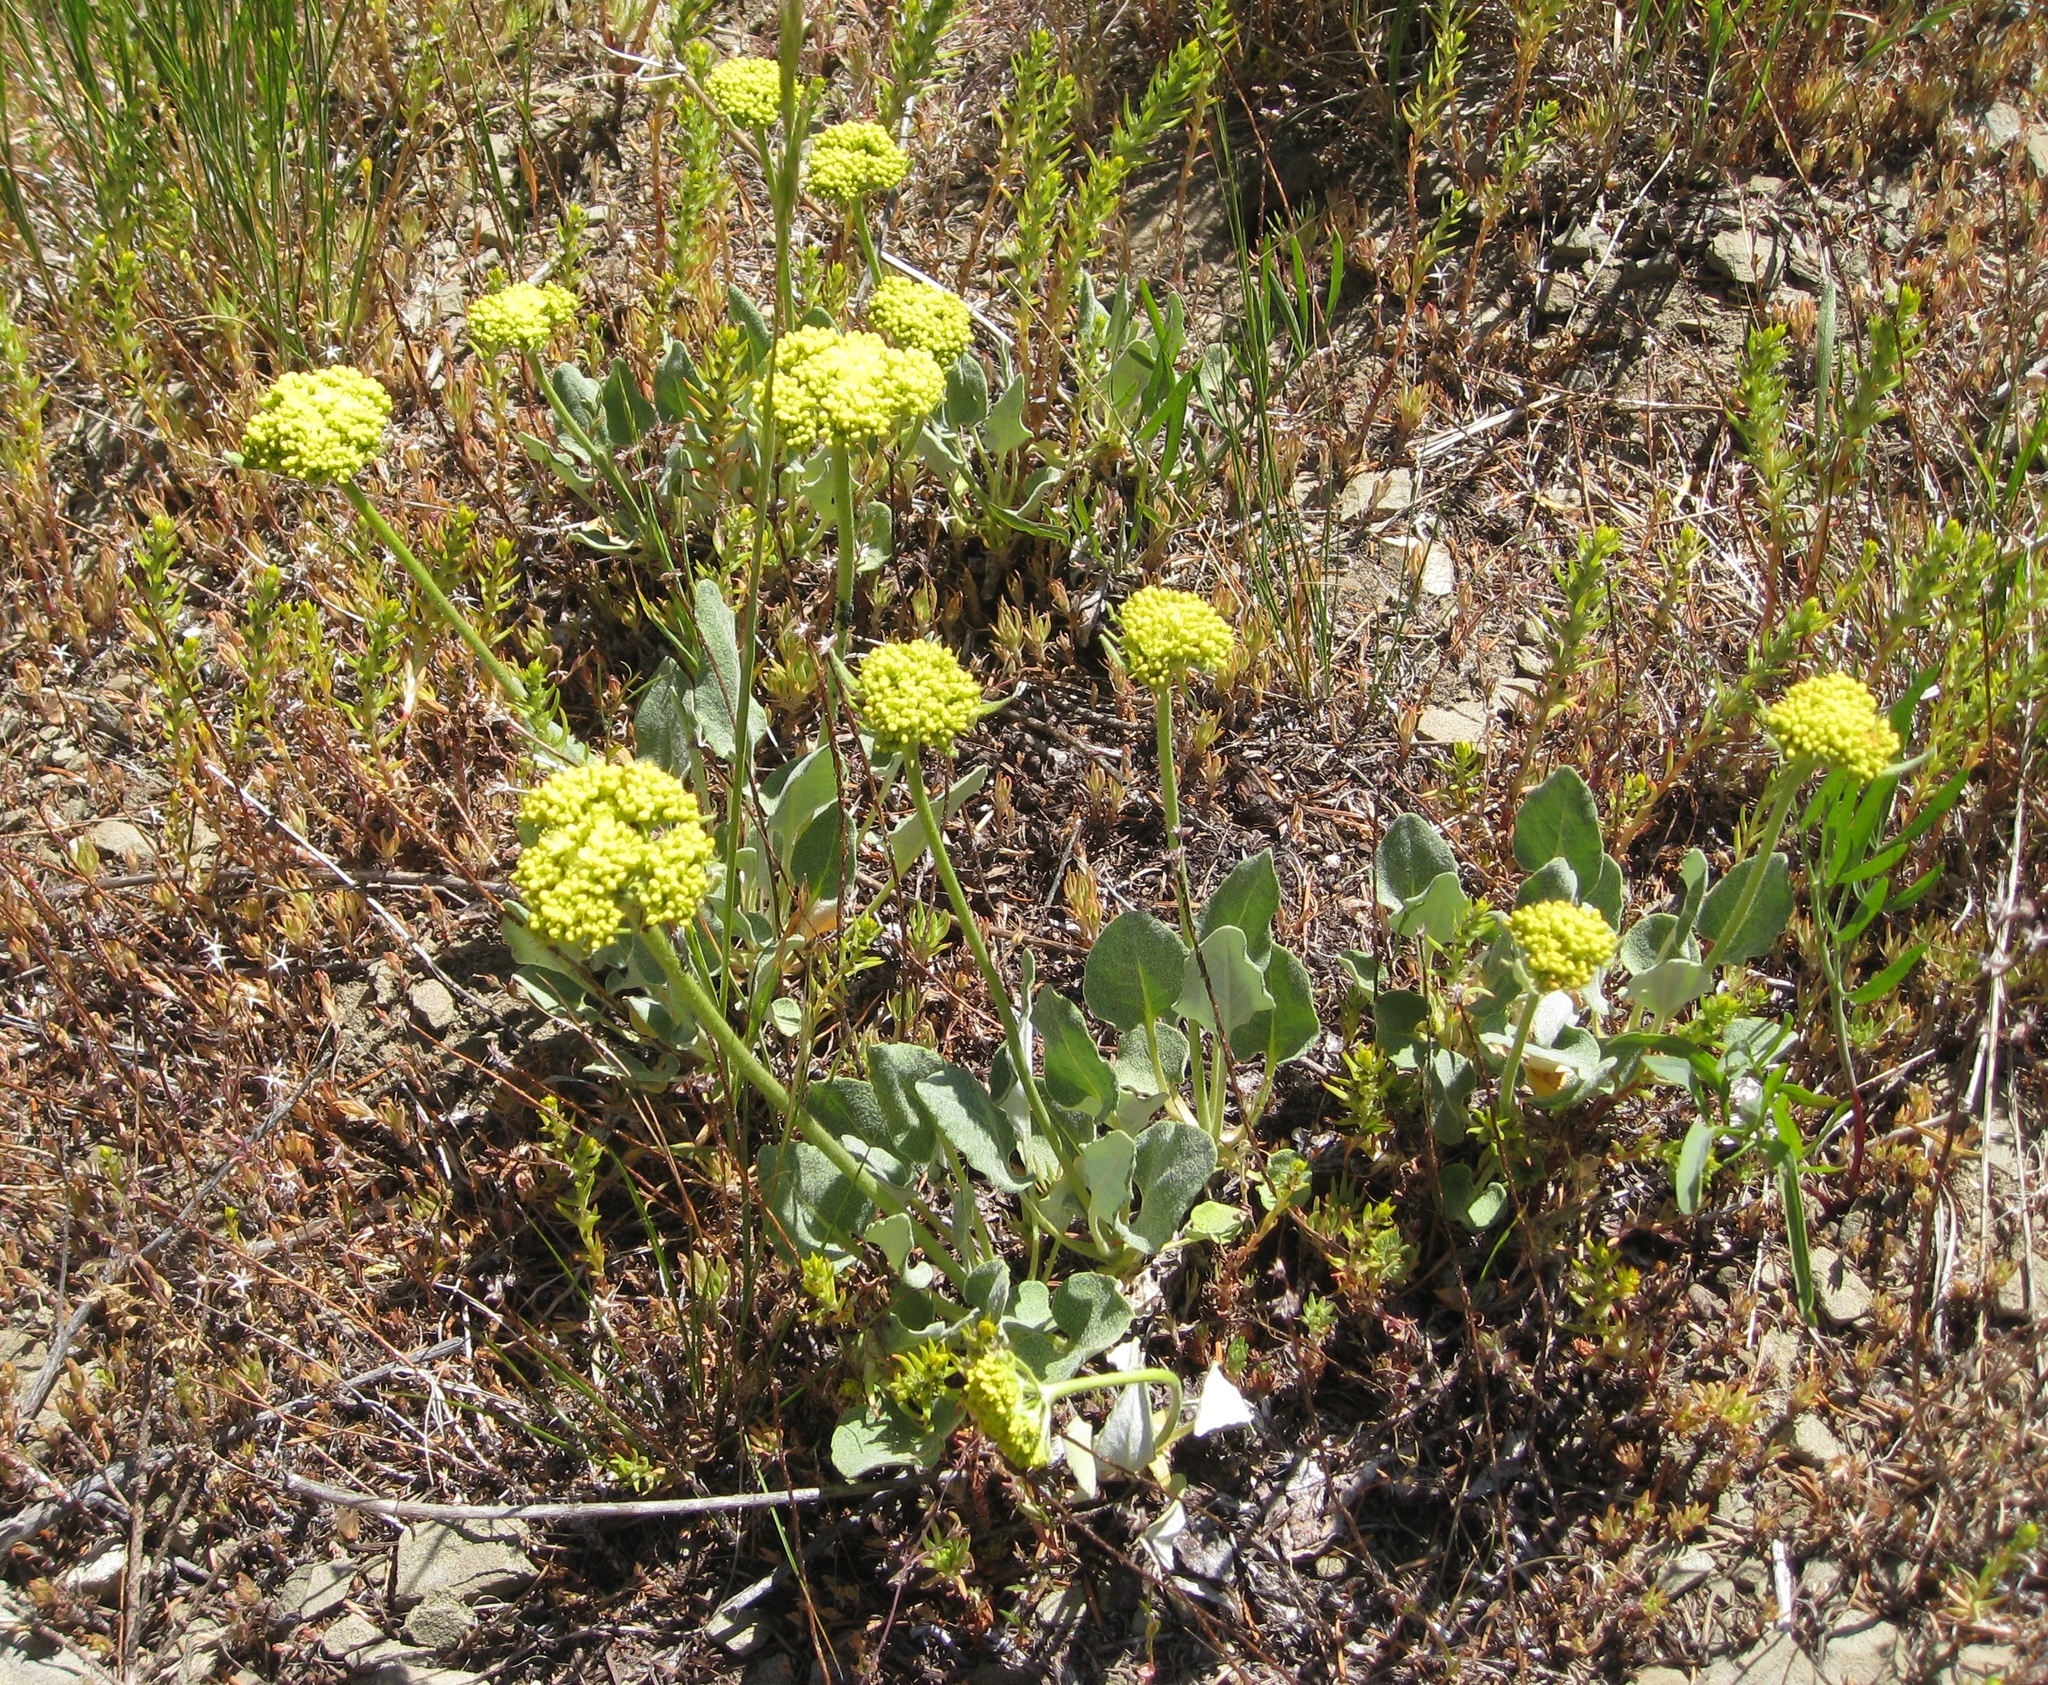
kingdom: Plantae
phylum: Tracheophyta
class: Magnoliopsida
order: Caryophyllales
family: Polygonaceae
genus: Eriogonum
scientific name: Eriogonum compositum
